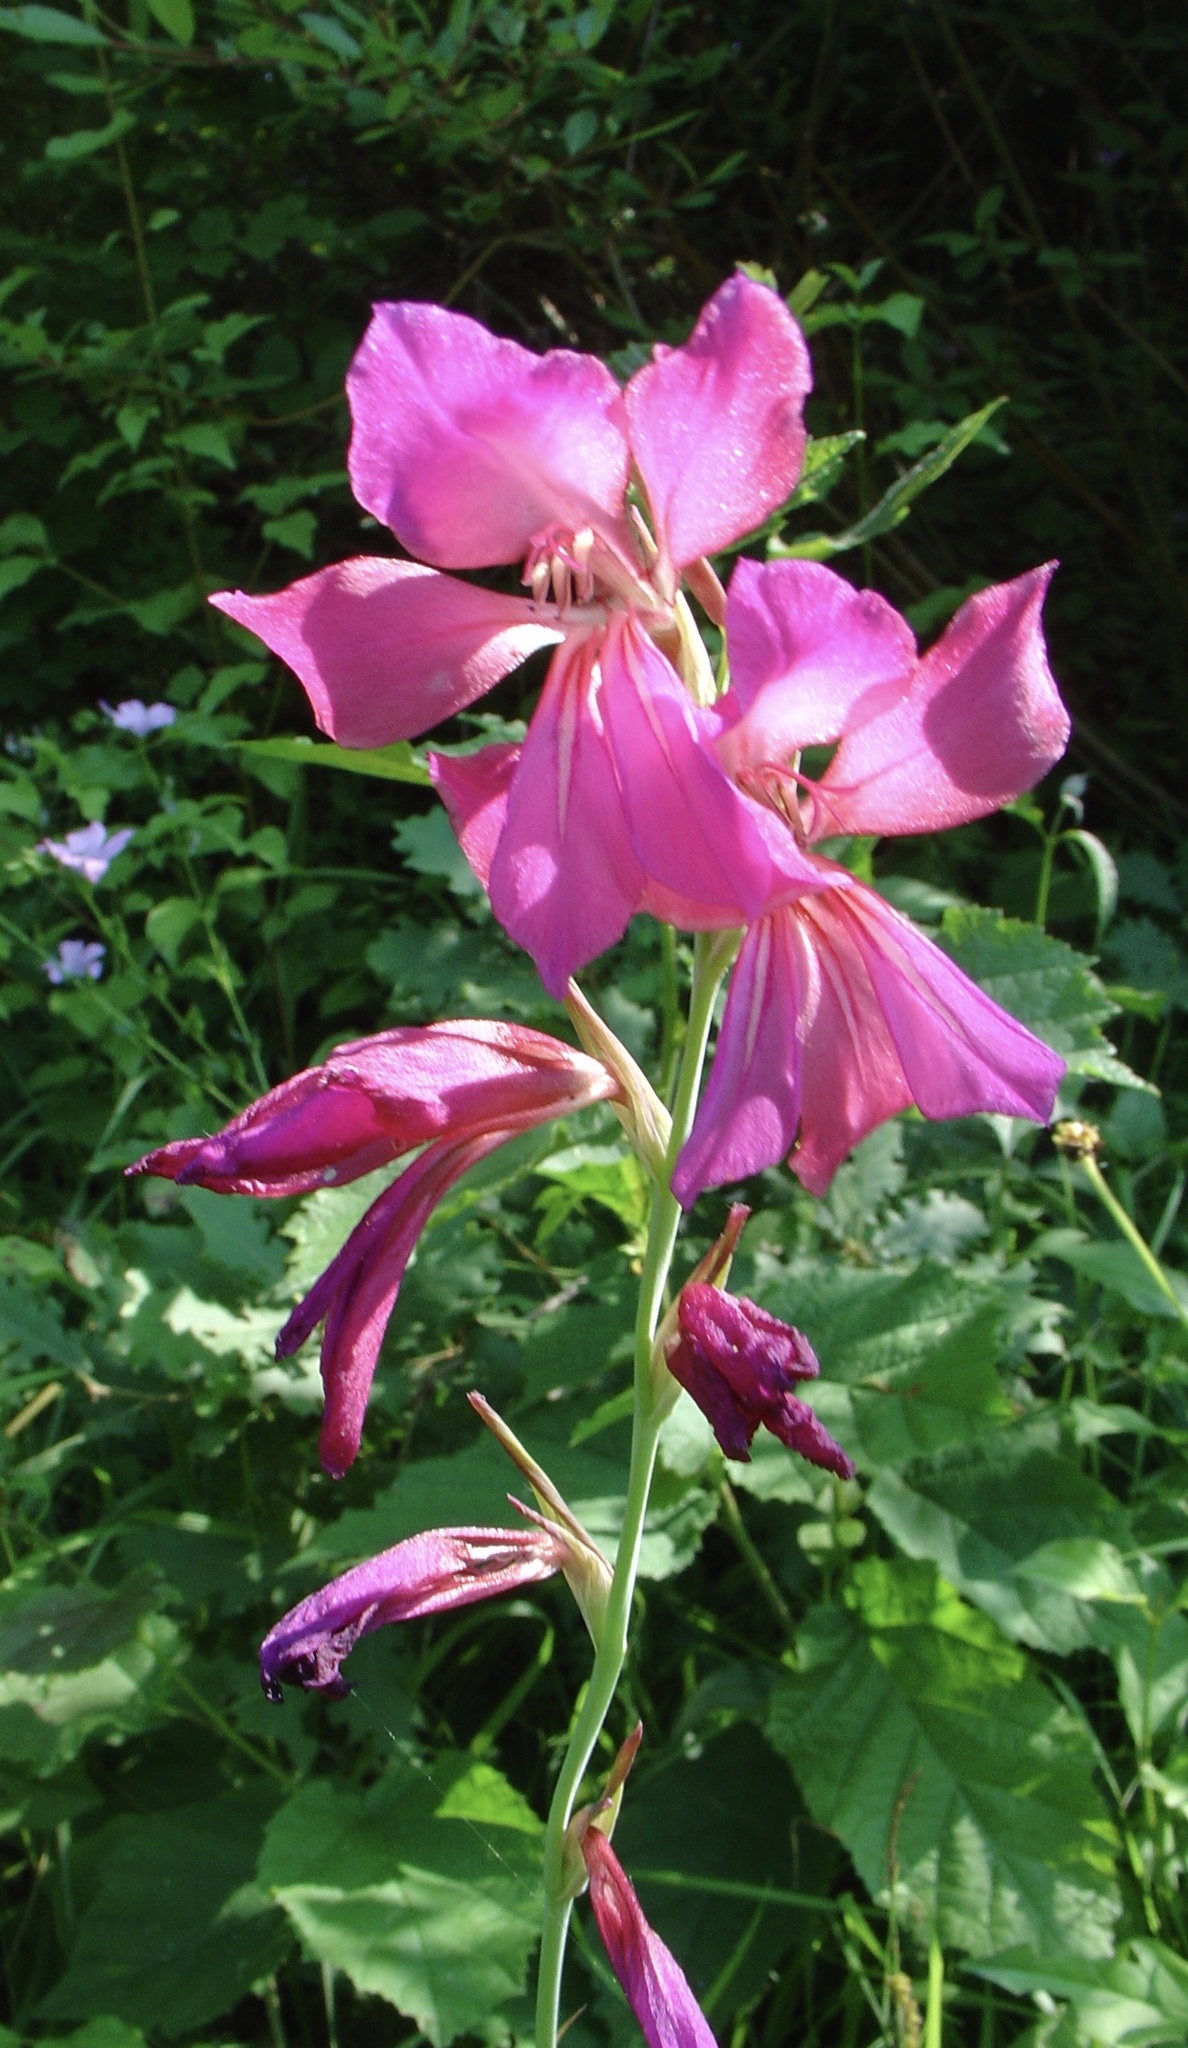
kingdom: Plantae
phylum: Tracheophyta
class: Liliopsida
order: Asparagales
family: Iridaceae
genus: Gladiolus
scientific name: Gladiolus byzantinus
